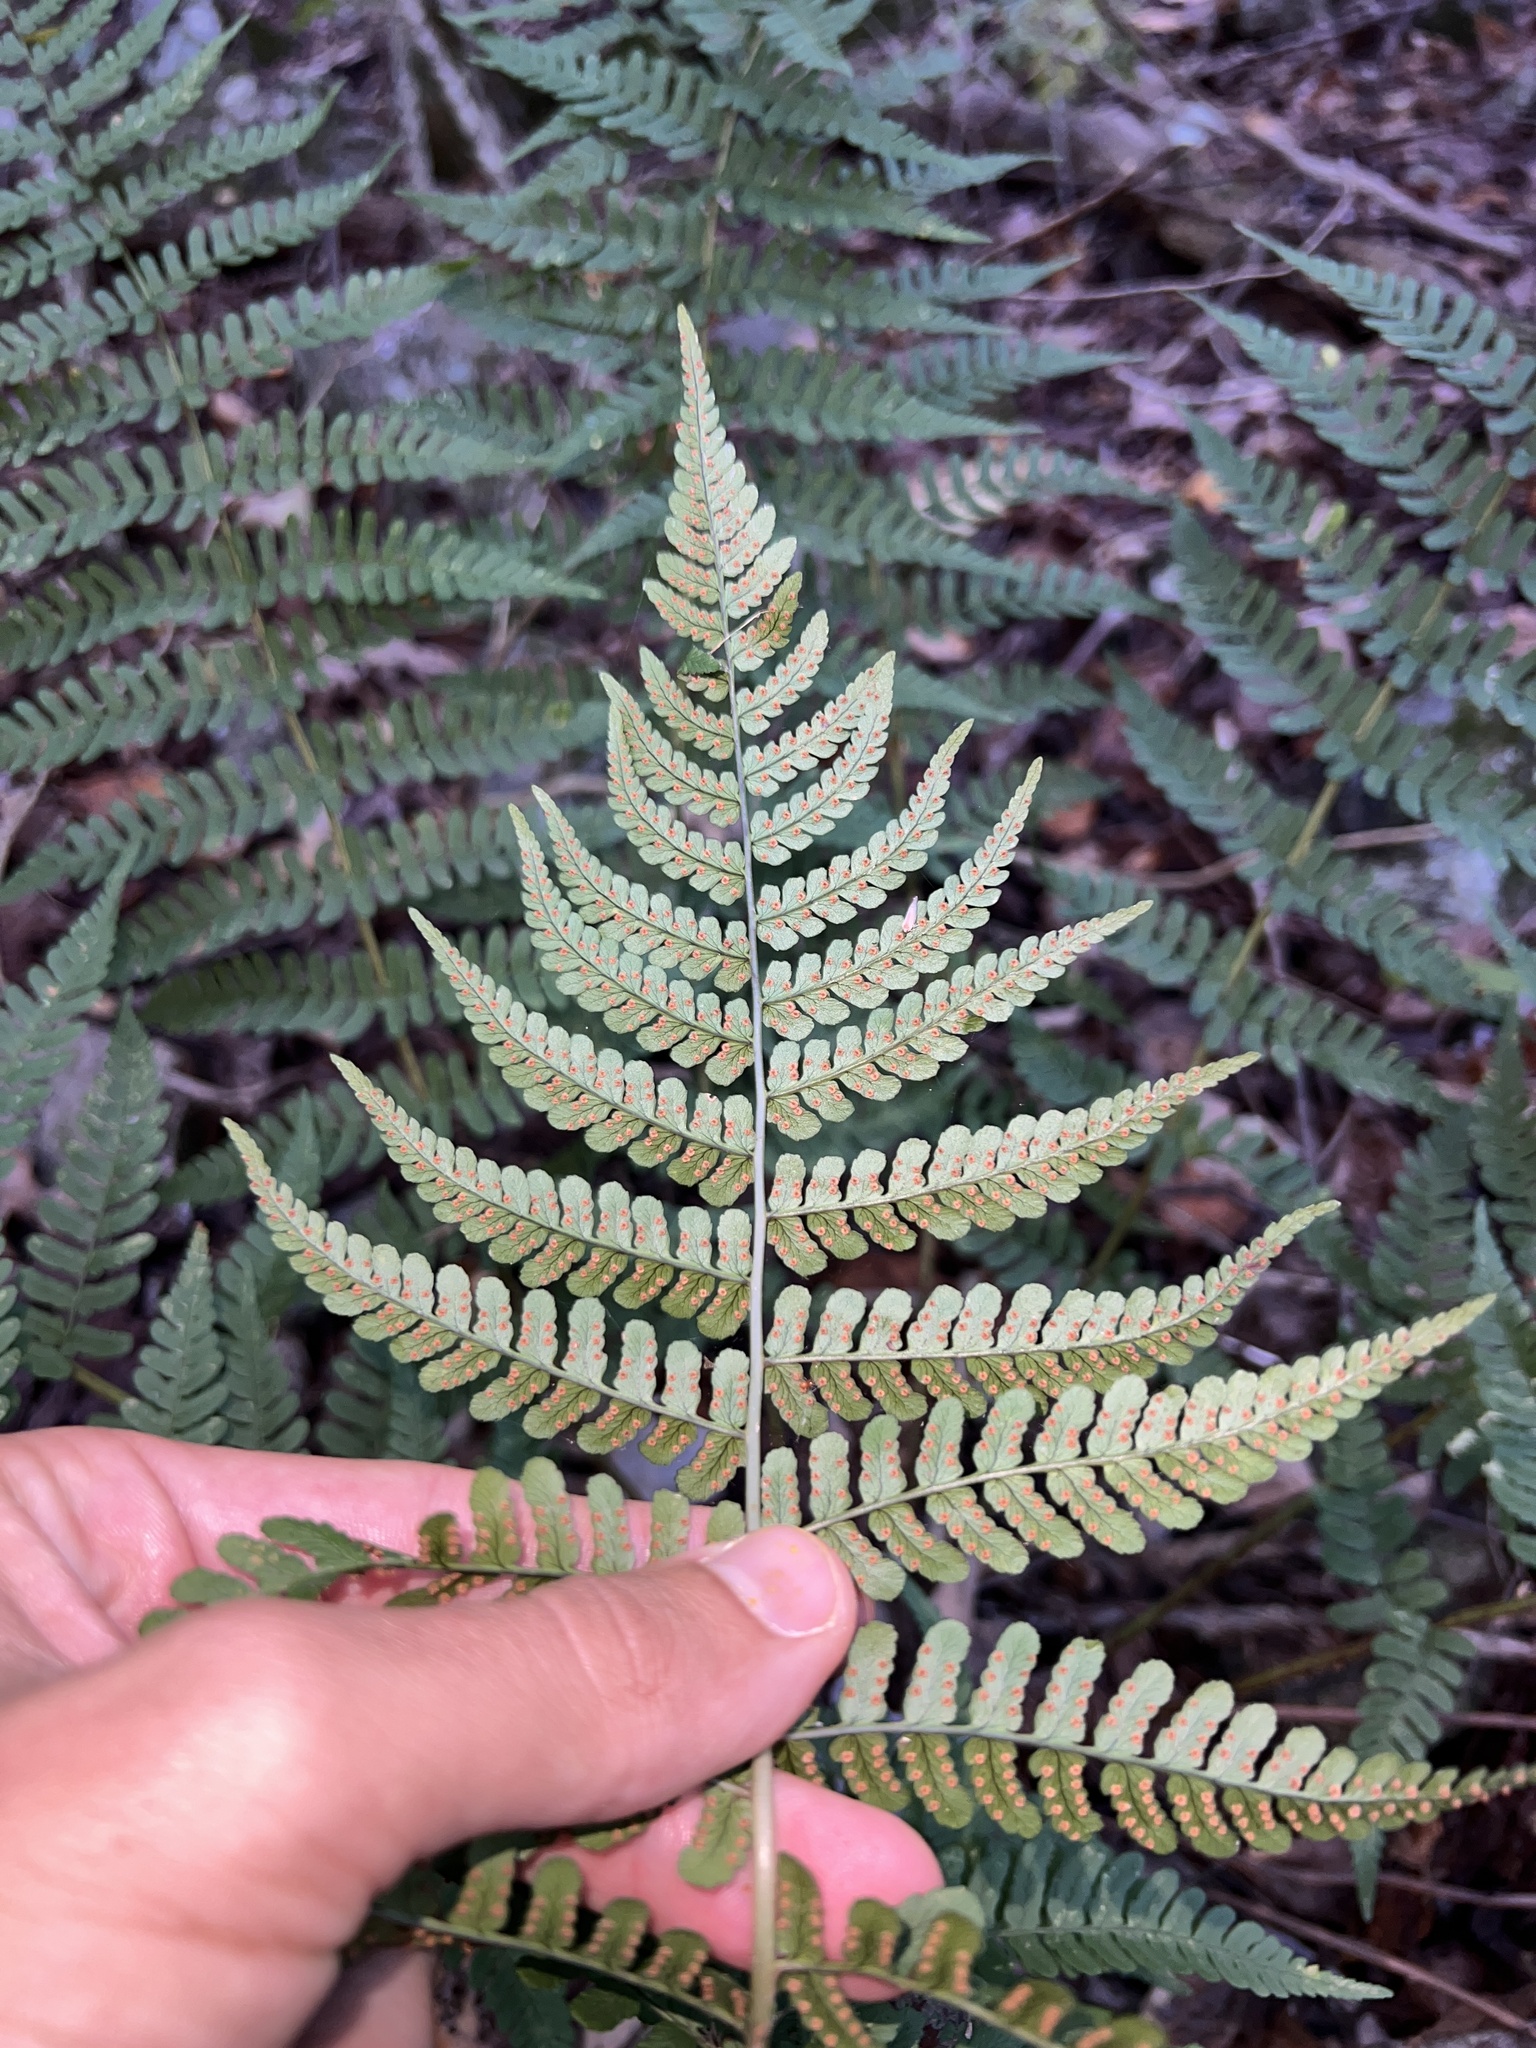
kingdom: Plantae
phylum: Tracheophyta
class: Polypodiopsida
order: Polypodiales
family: Dryopteridaceae
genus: Dryopteris
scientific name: Dryopteris marginalis
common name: Marginal wood fern
